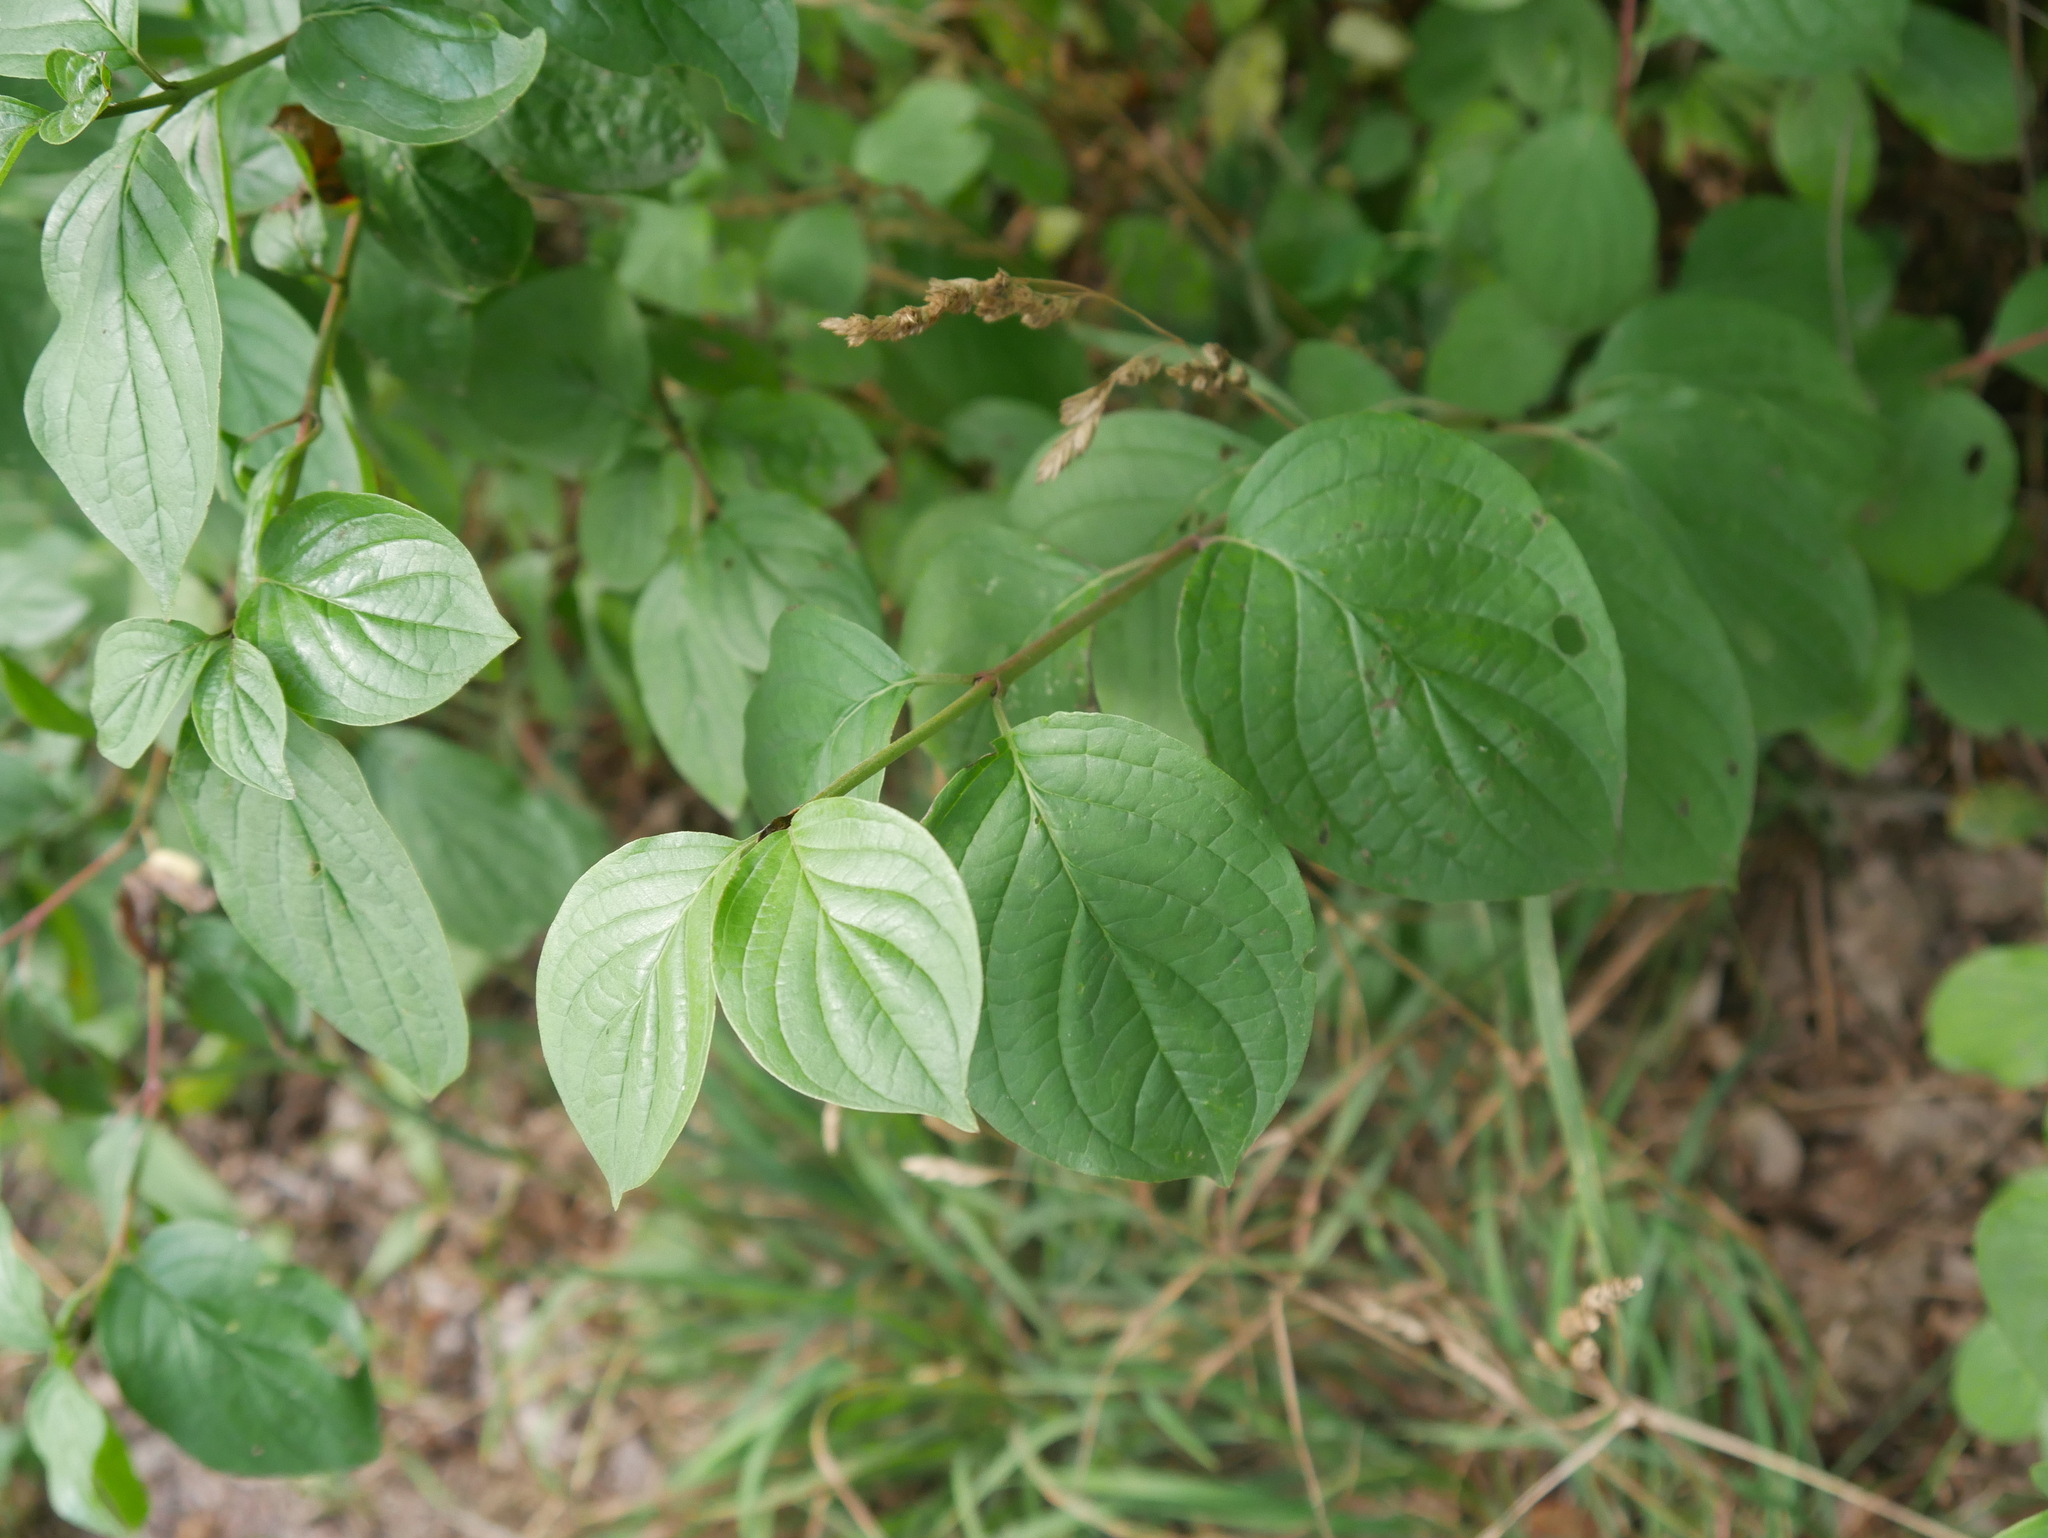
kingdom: Plantae
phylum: Tracheophyta
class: Magnoliopsida
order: Cornales
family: Cornaceae
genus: Cornus
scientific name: Cornus sanguinea
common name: Dogwood
